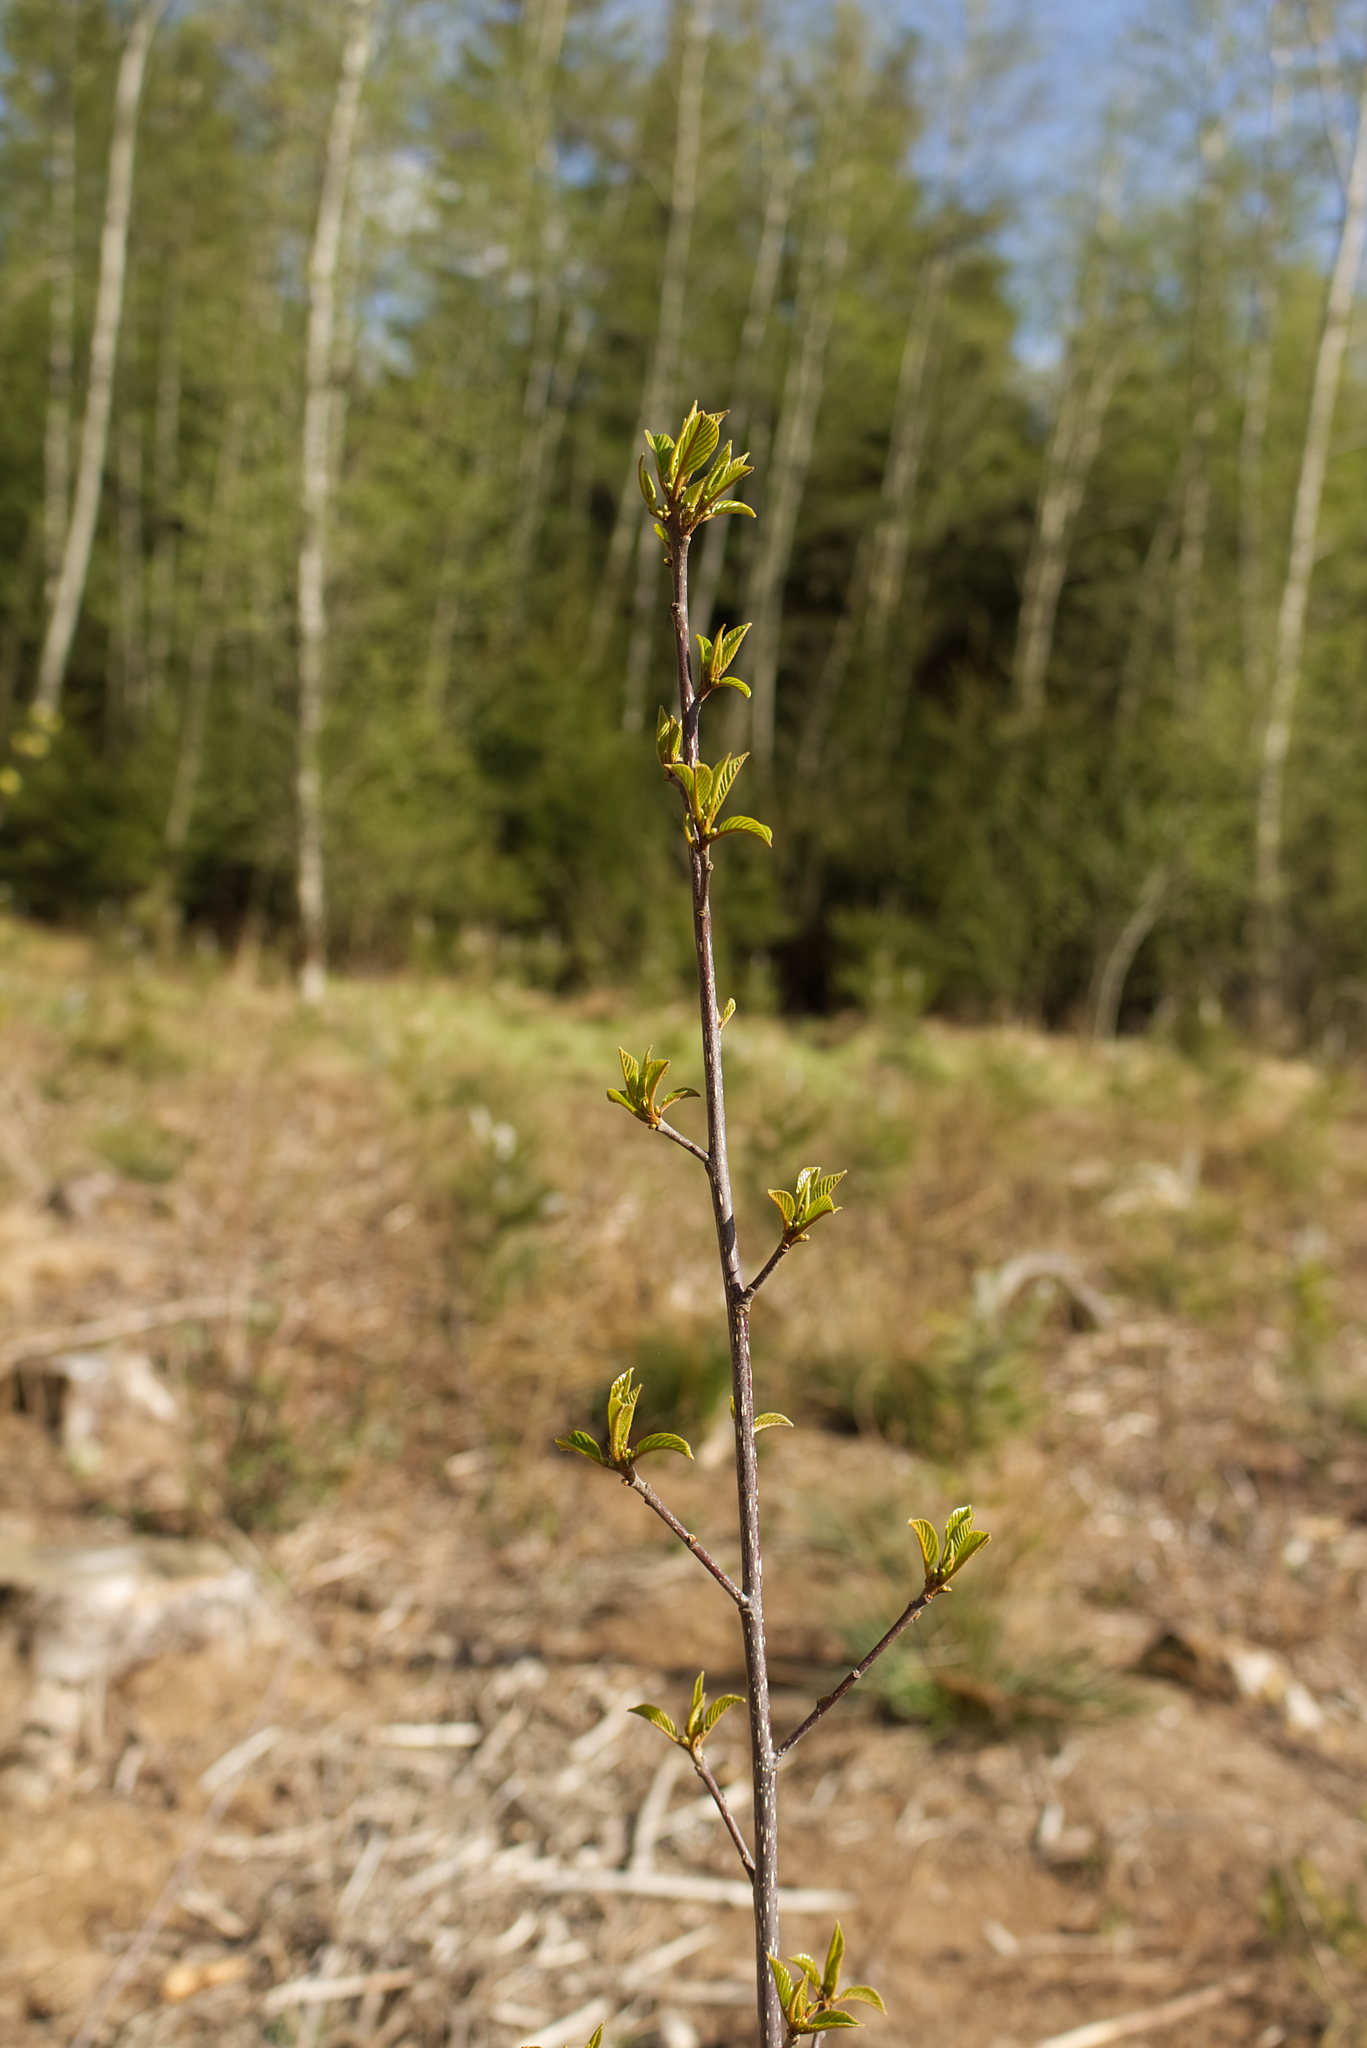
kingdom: Plantae
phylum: Tracheophyta
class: Magnoliopsida
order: Rosales
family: Rhamnaceae
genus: Frangula
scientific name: Frangula alnus
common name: Alder buckthorn
